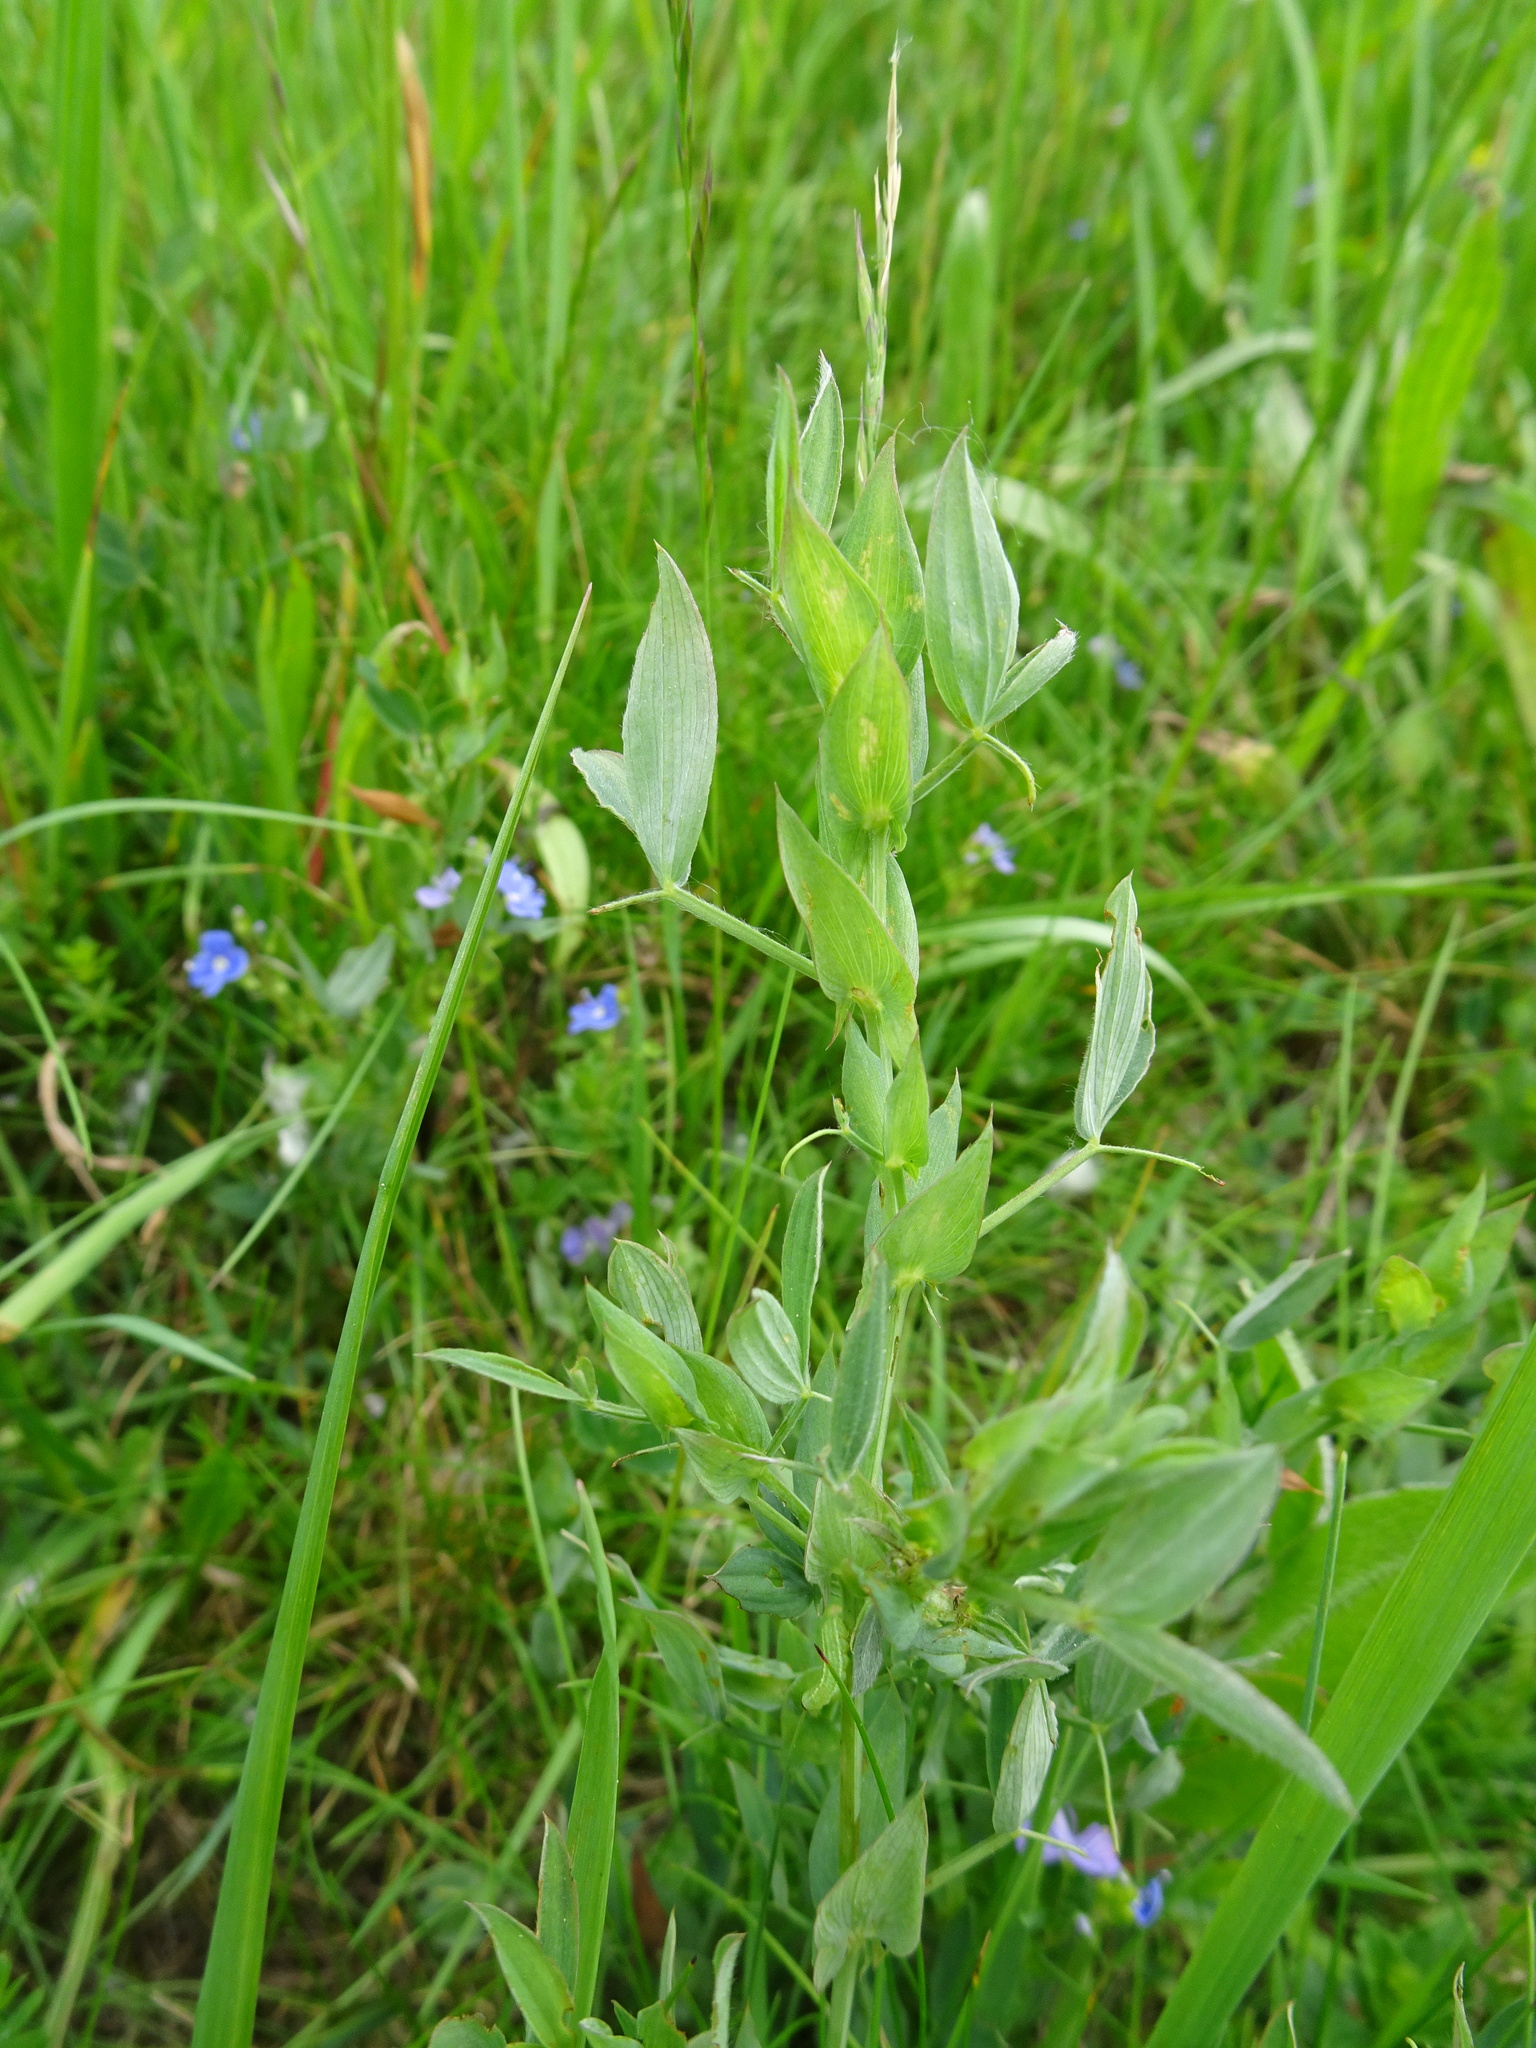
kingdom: Plantae
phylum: Tracheophyta
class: Magnoliopsida
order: Fabales
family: Fabaceae
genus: Lathyrus
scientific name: Lathyrus pratensis
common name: Meadow vetchling
